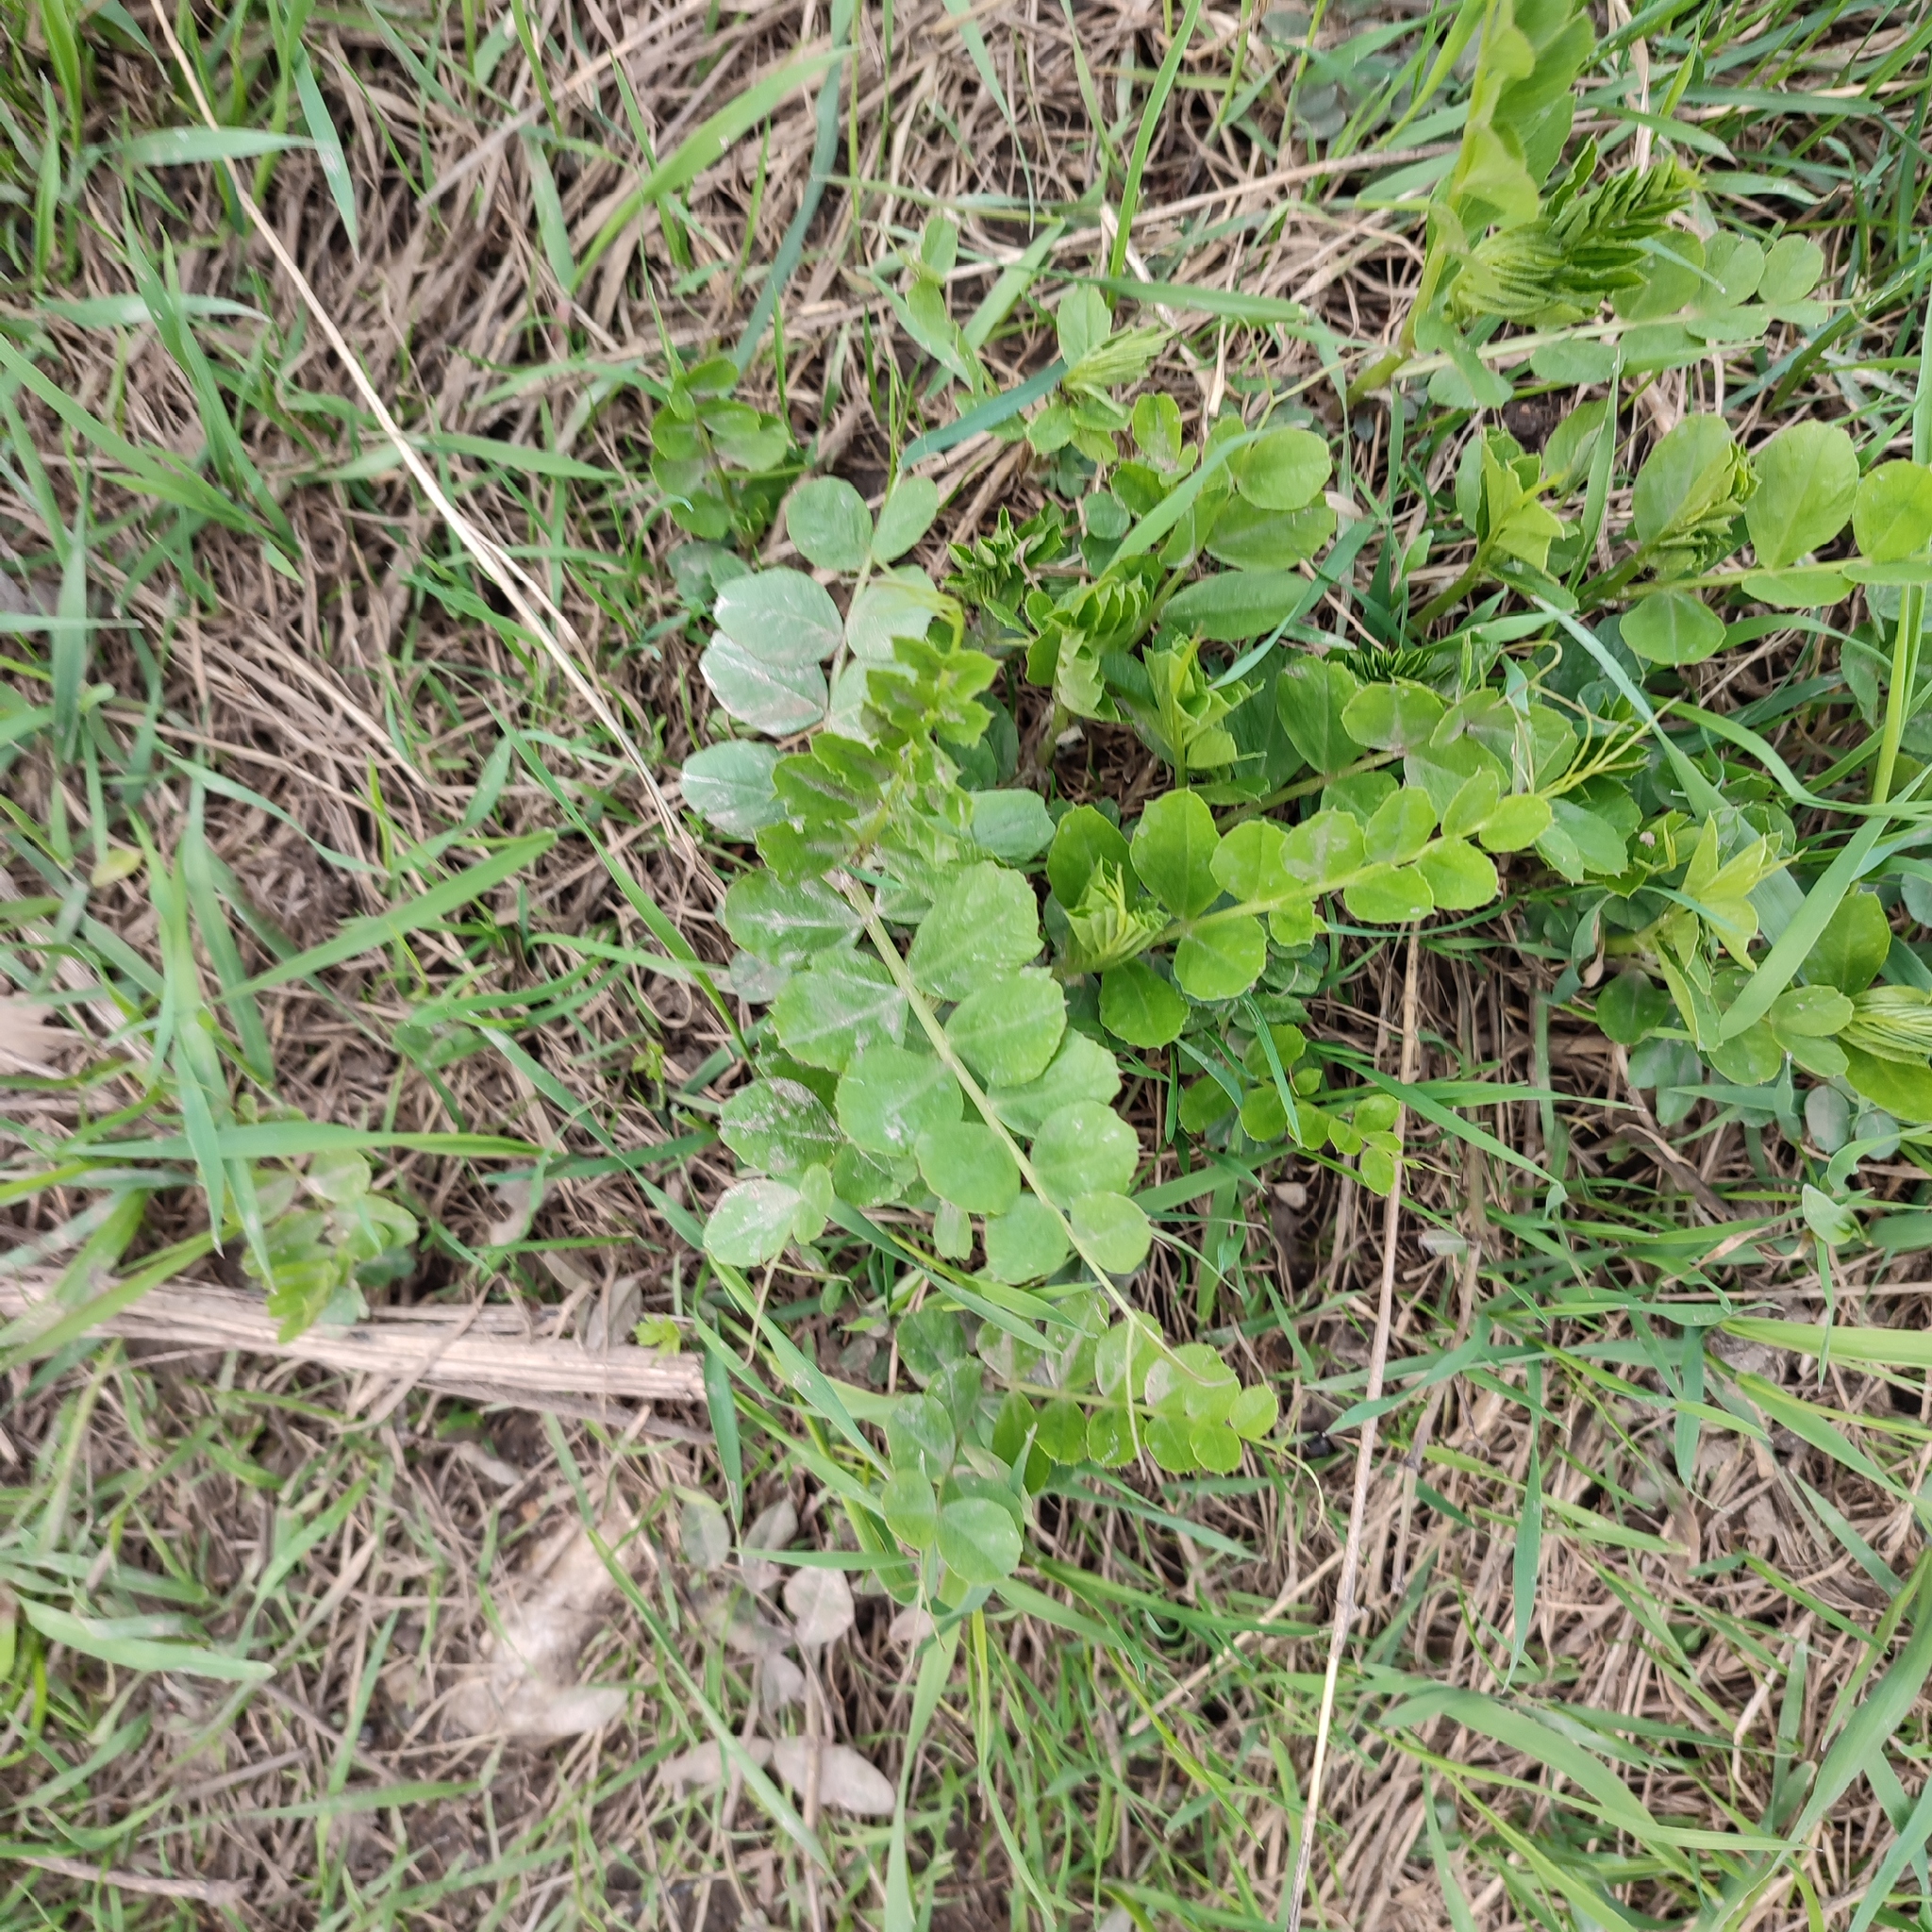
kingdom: Plantae
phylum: Tracheophyta
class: Magnoliopsida
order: Fabales
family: Fabaceae
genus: Astragalus
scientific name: Astragalus glycyphyllos
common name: Wild liquorice
